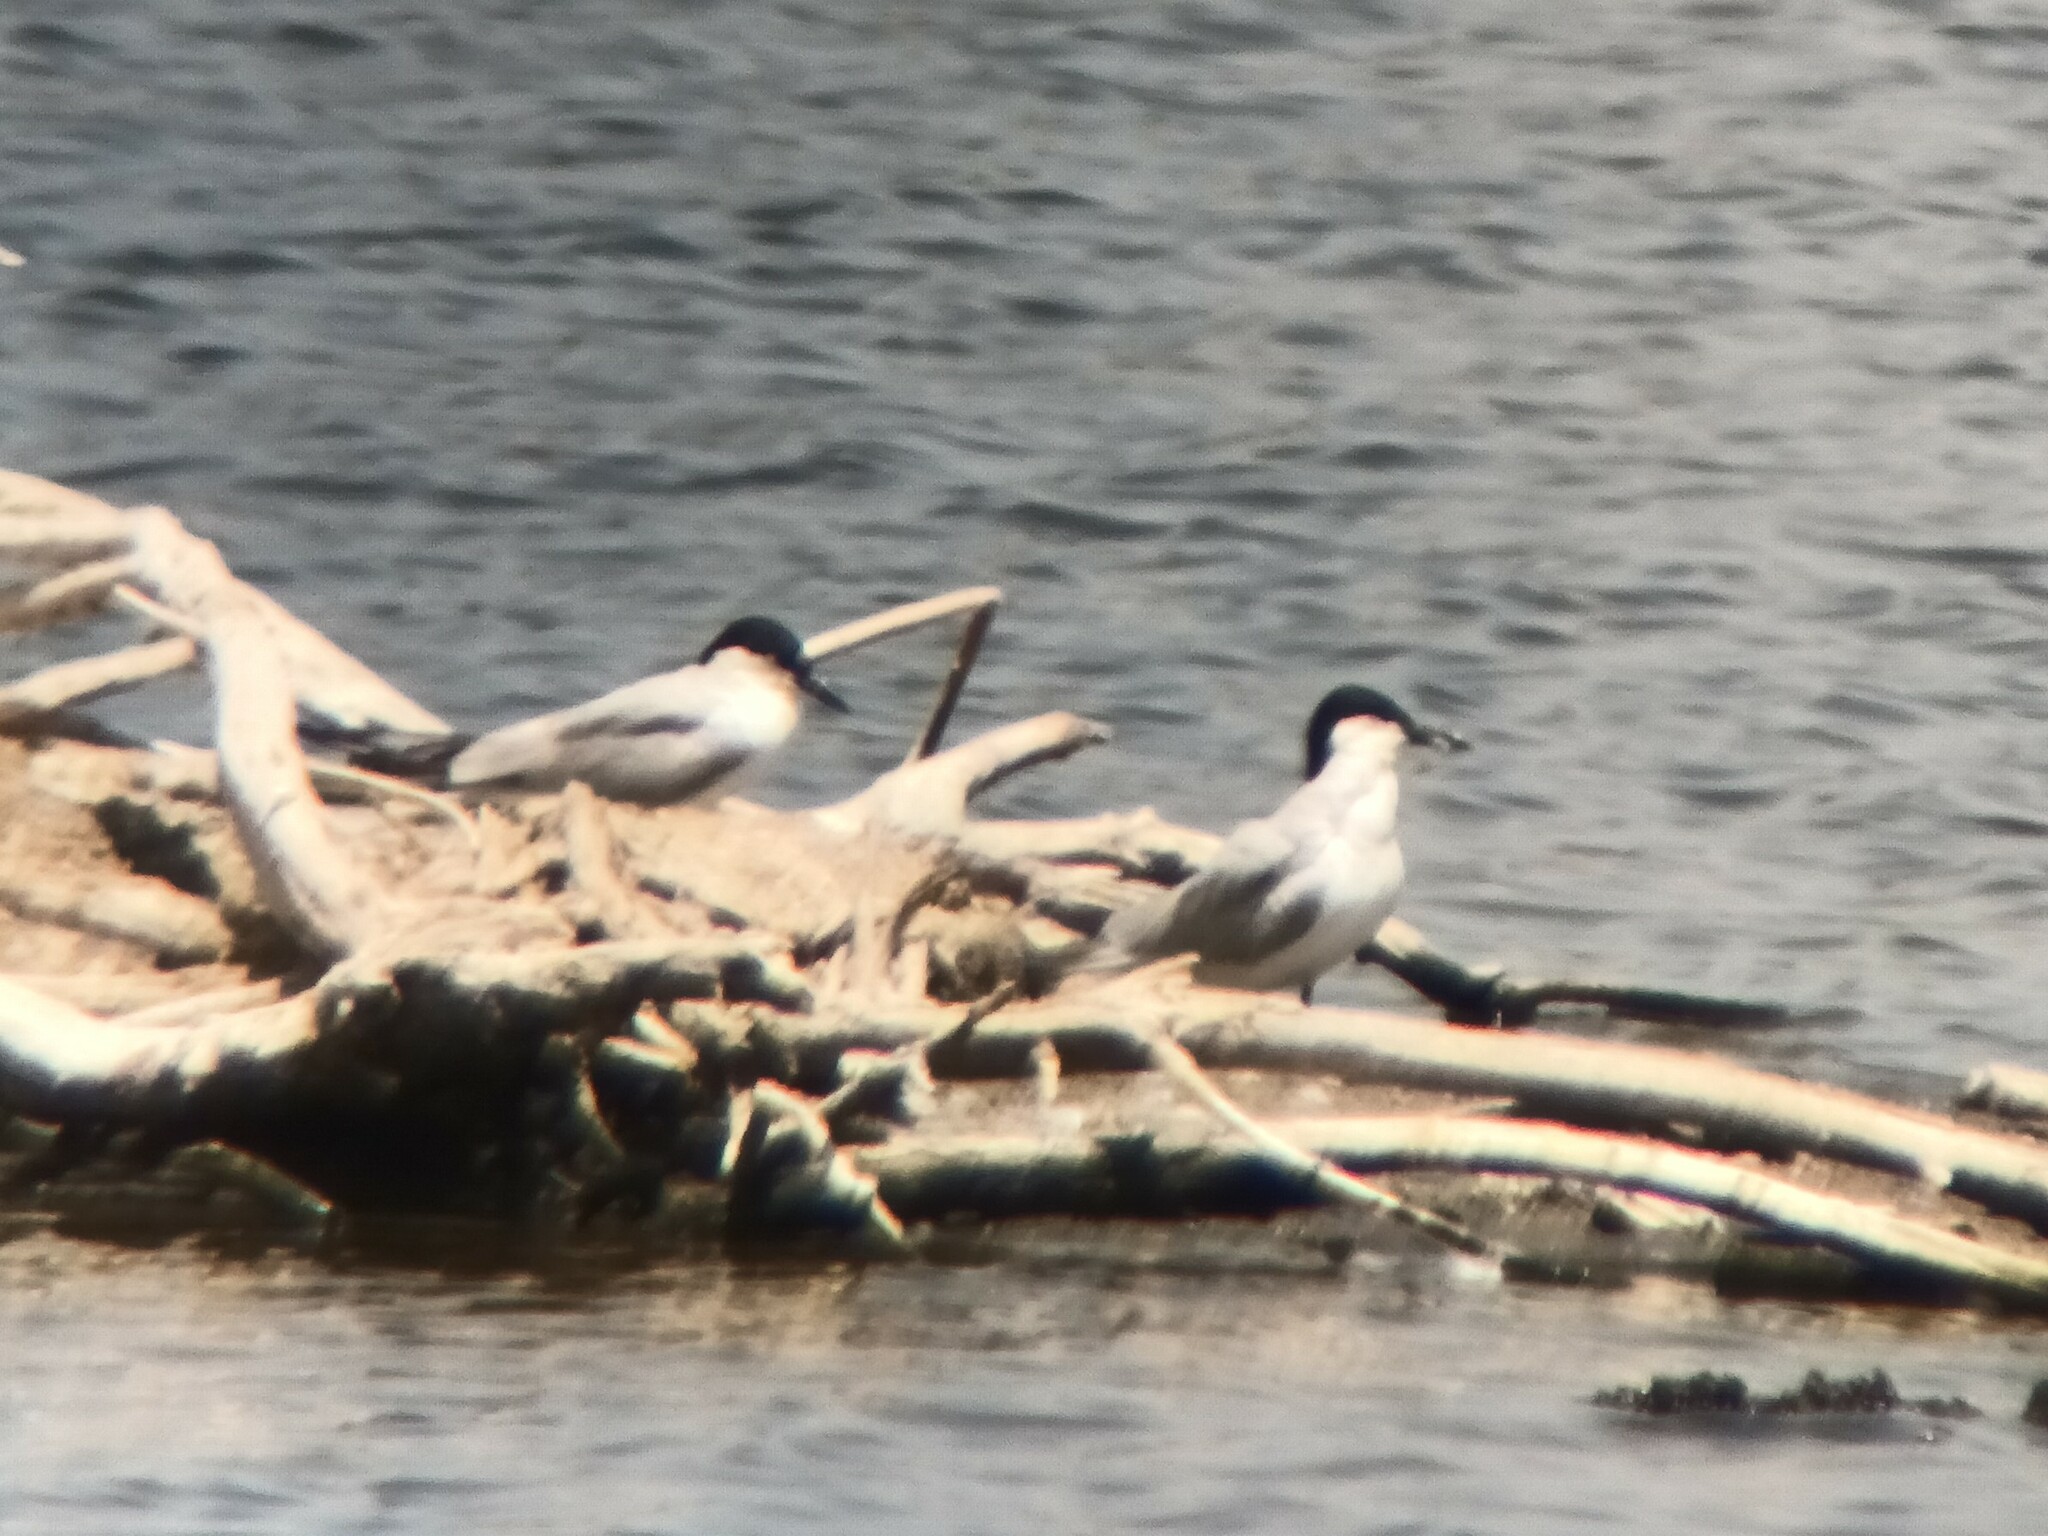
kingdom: Animalia
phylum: Chordata
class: Aves
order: Charadriiformes
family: Laridae
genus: Gelochelidon
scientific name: Gelochelidon nilotica
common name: Gull-billed tern
